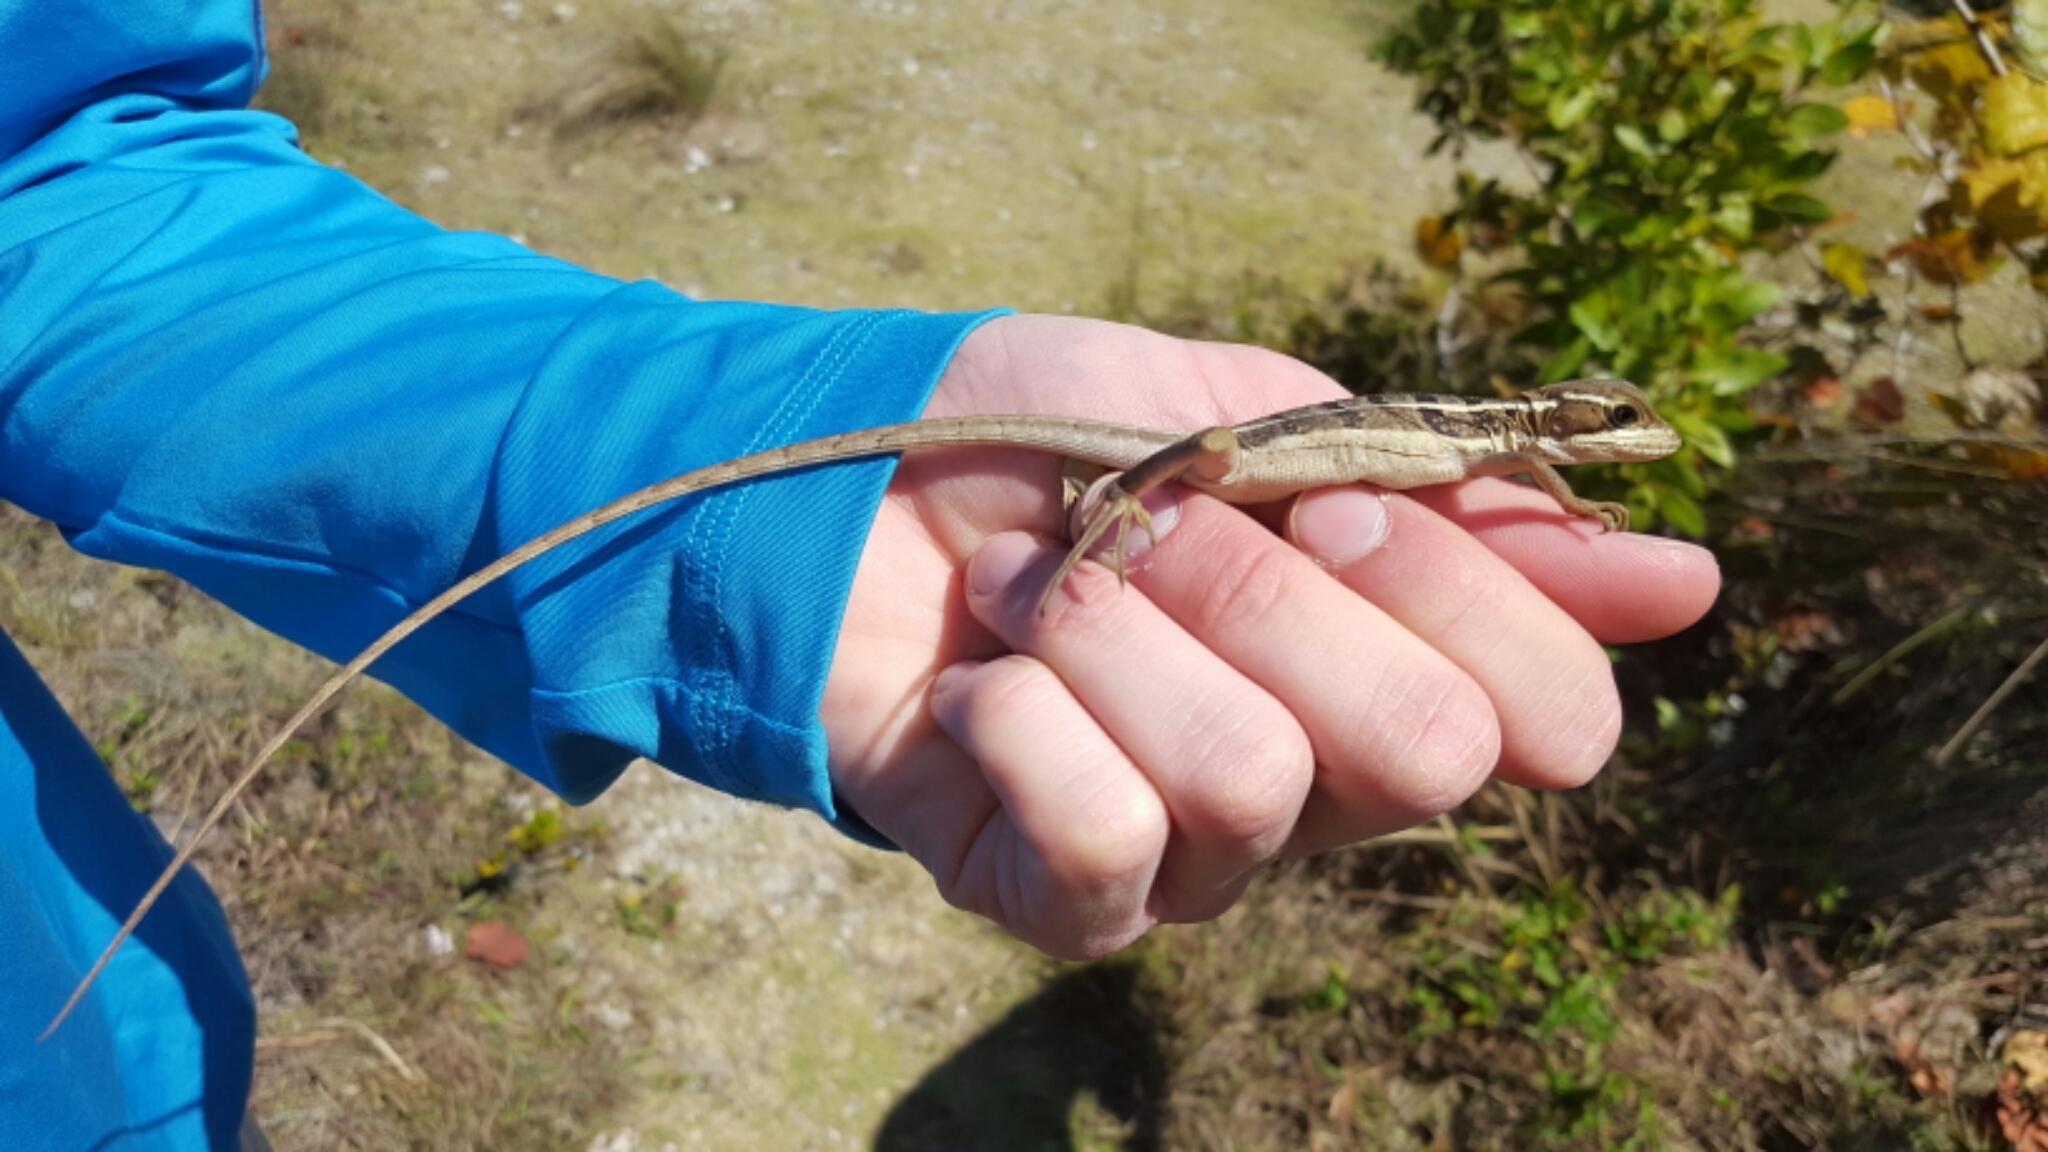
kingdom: Animalia
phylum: Chordata
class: Squamata
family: Corytophanidae
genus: Basiliscus
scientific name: Basiliscus vittatus
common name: Brown basilisk
